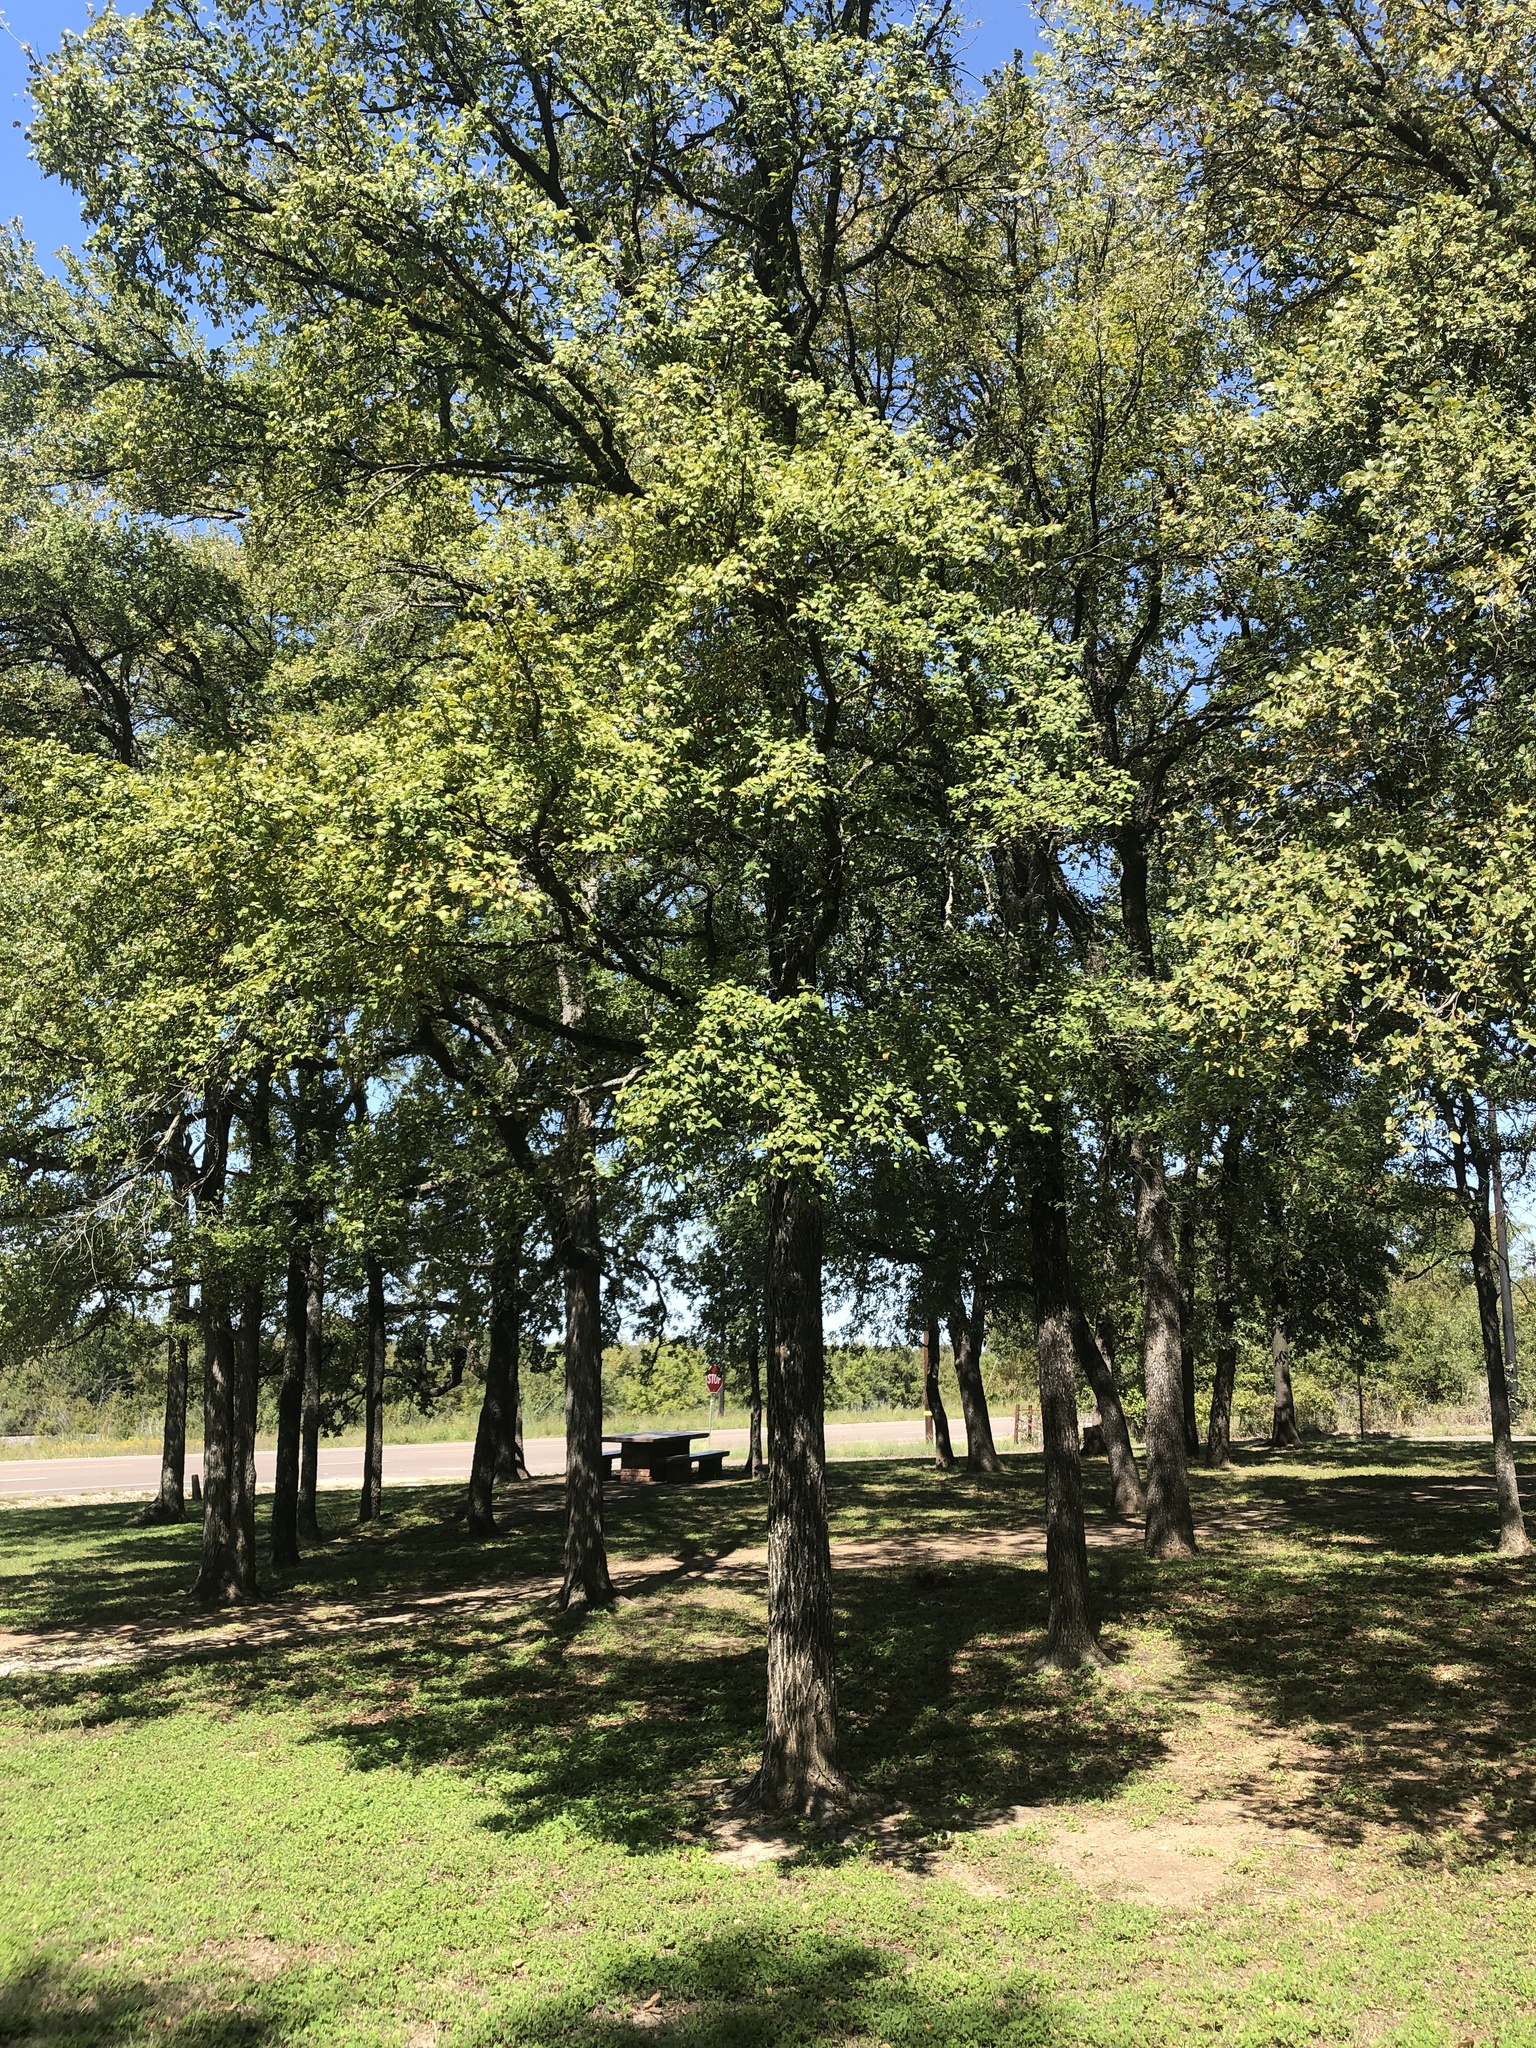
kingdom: Plantae
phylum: Tracheophyta
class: Magnoliopsida
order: Rosales
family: Ulmaceae
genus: Ulmus
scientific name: Ulmus crassifolia
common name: Basket elm
